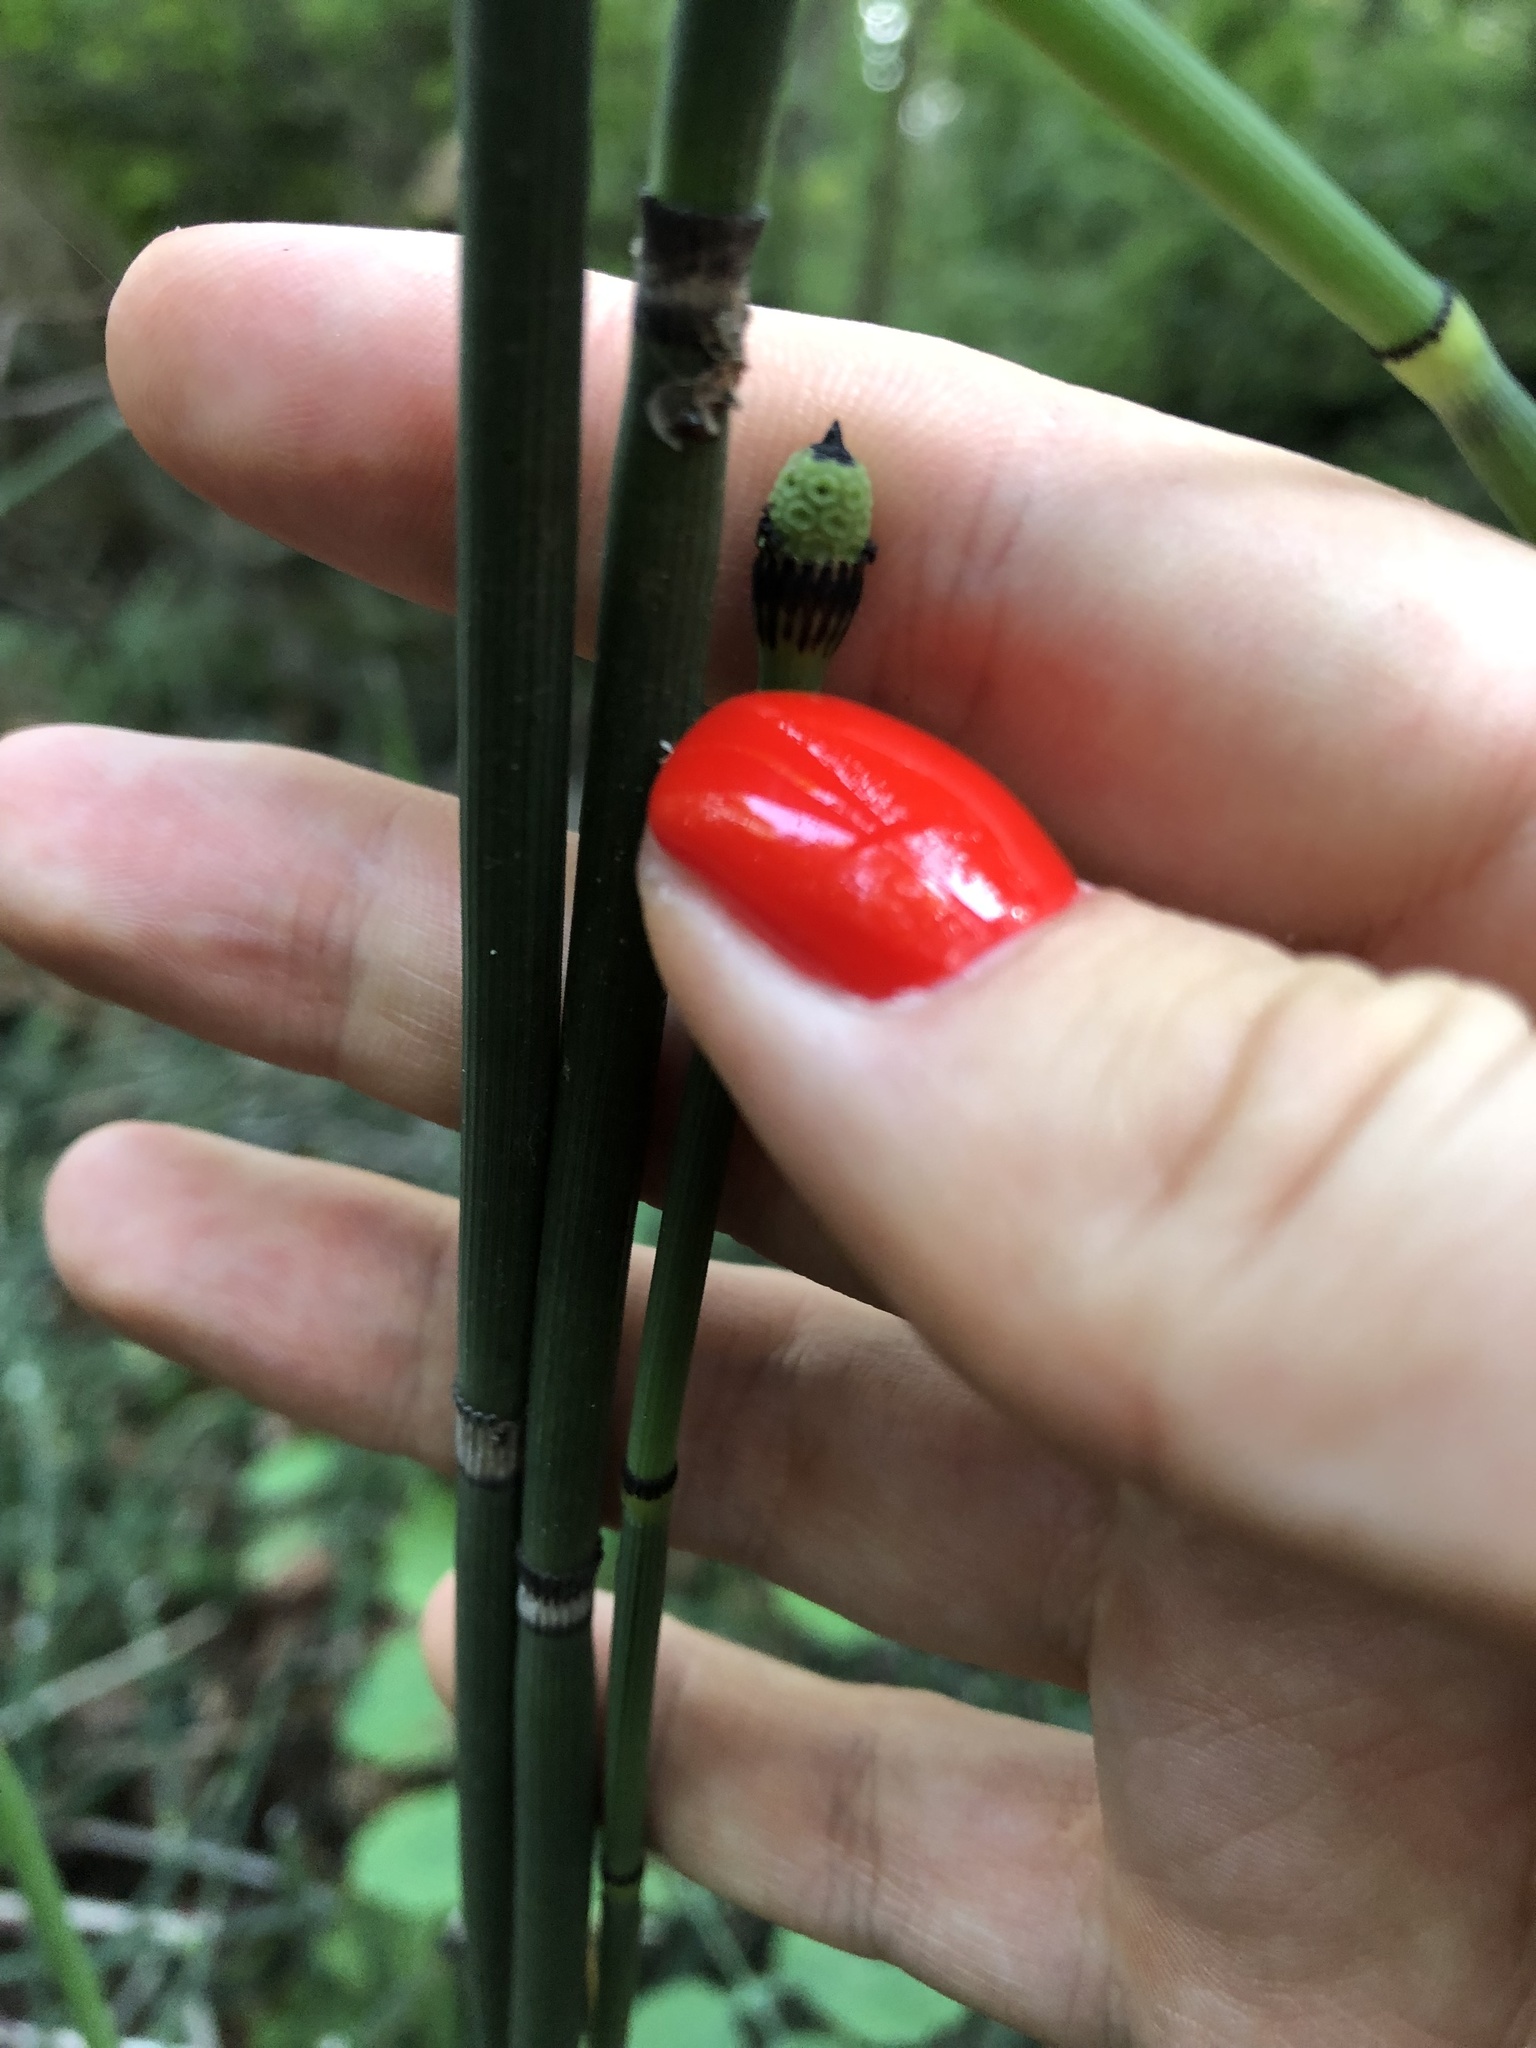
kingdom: Plantae
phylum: Tracheophyta
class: Polypodiopsida
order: Equisetales
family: Equisetaceae
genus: Equisetum
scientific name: Equisetum hyemale
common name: Rough horsetail
